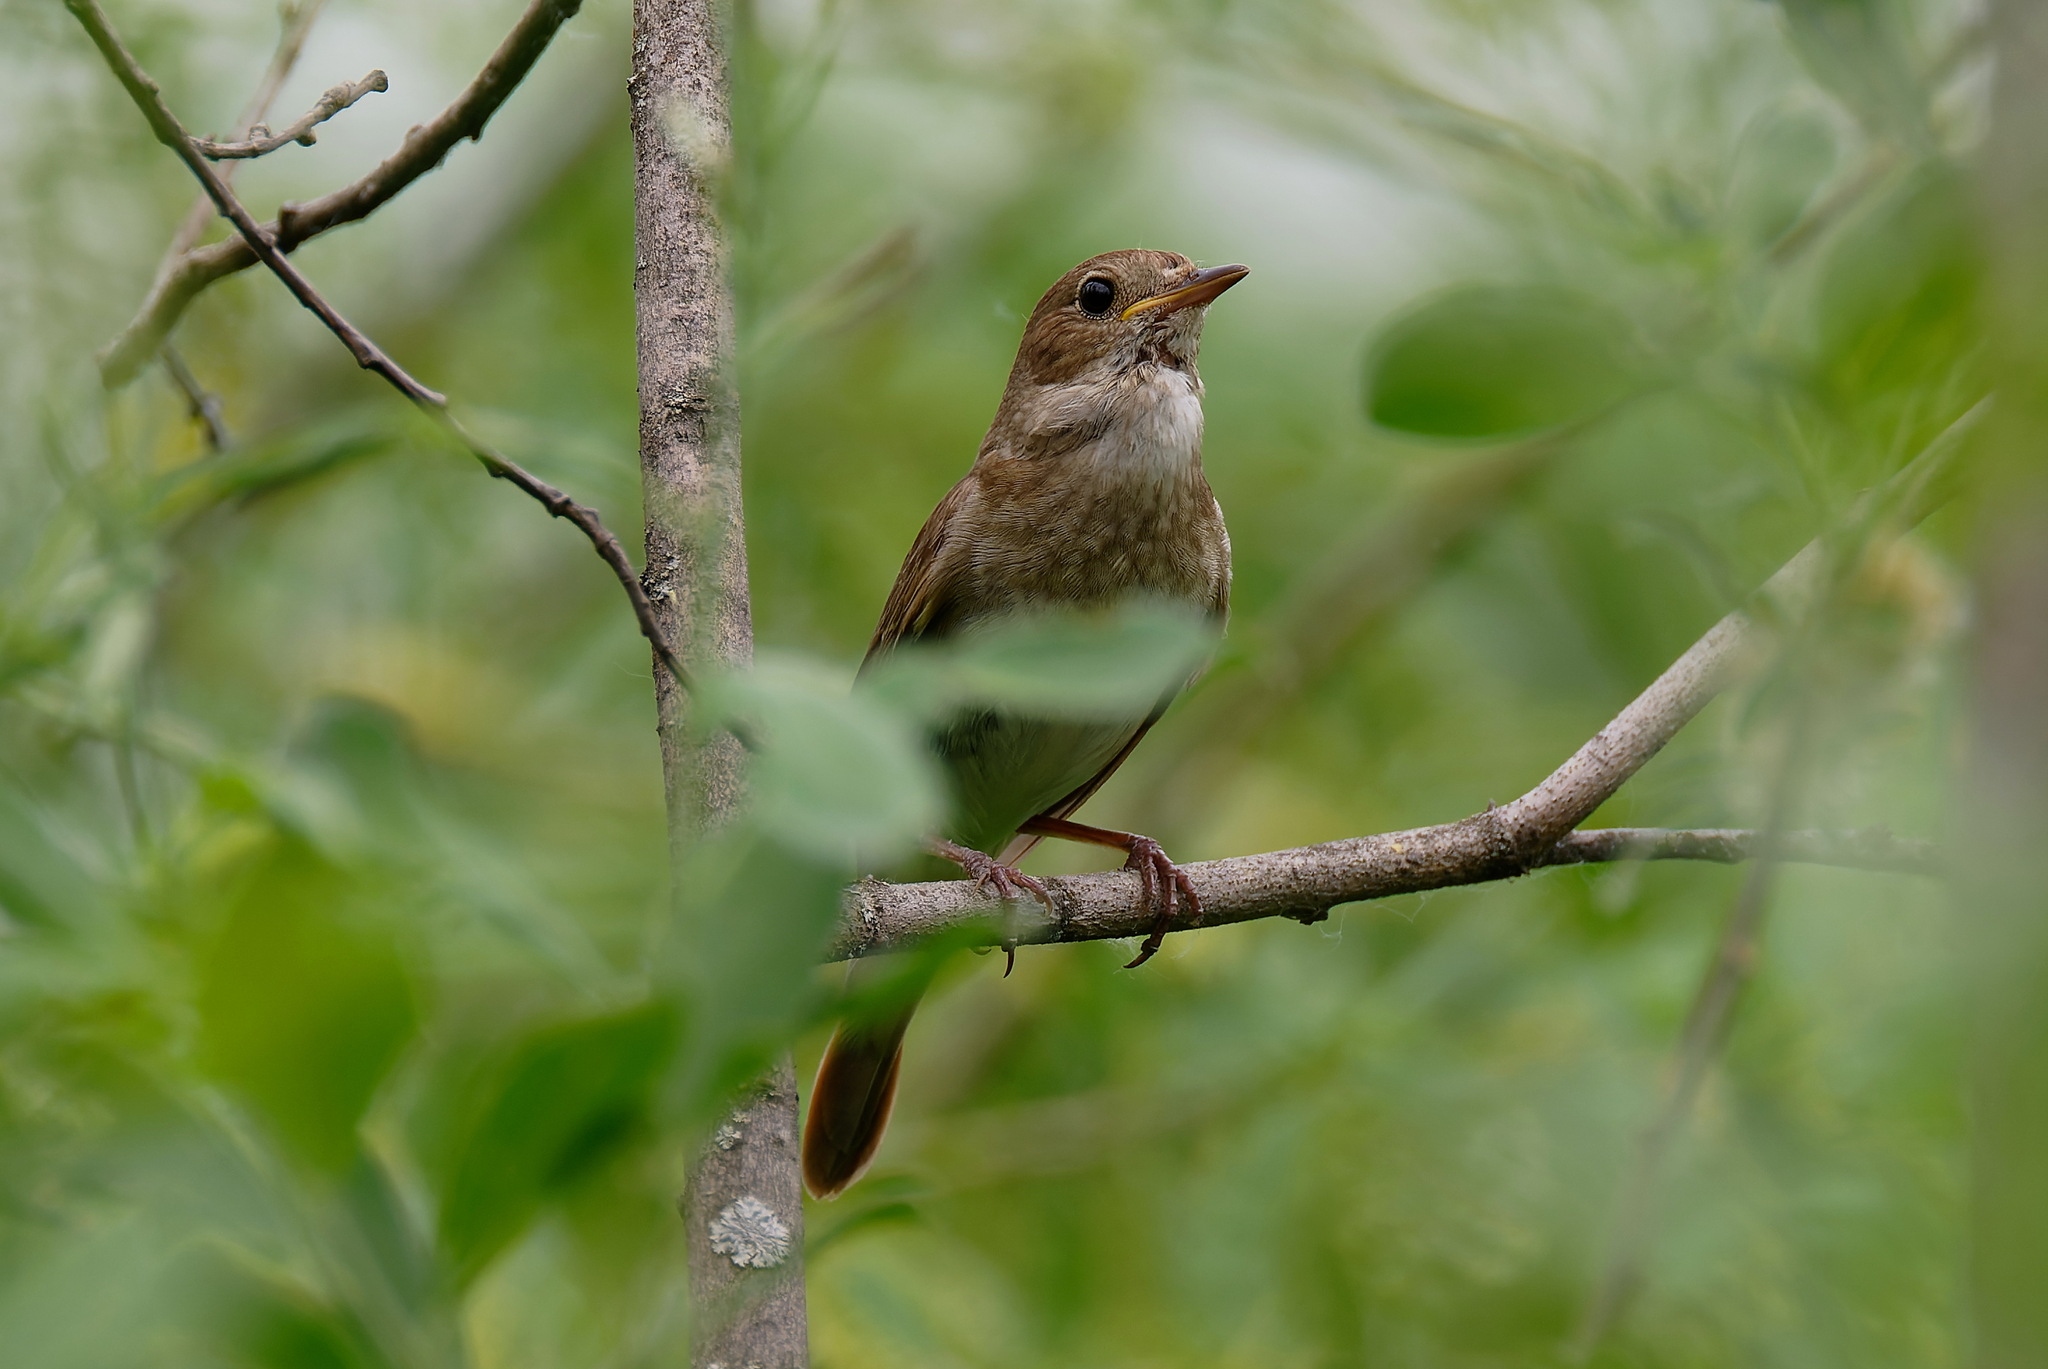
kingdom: Animalia
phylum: Chordata
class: Aves
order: Passeriformes
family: Muscicapidae
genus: Luscinia
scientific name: Luscinia luscinia
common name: Thrush nightingale
